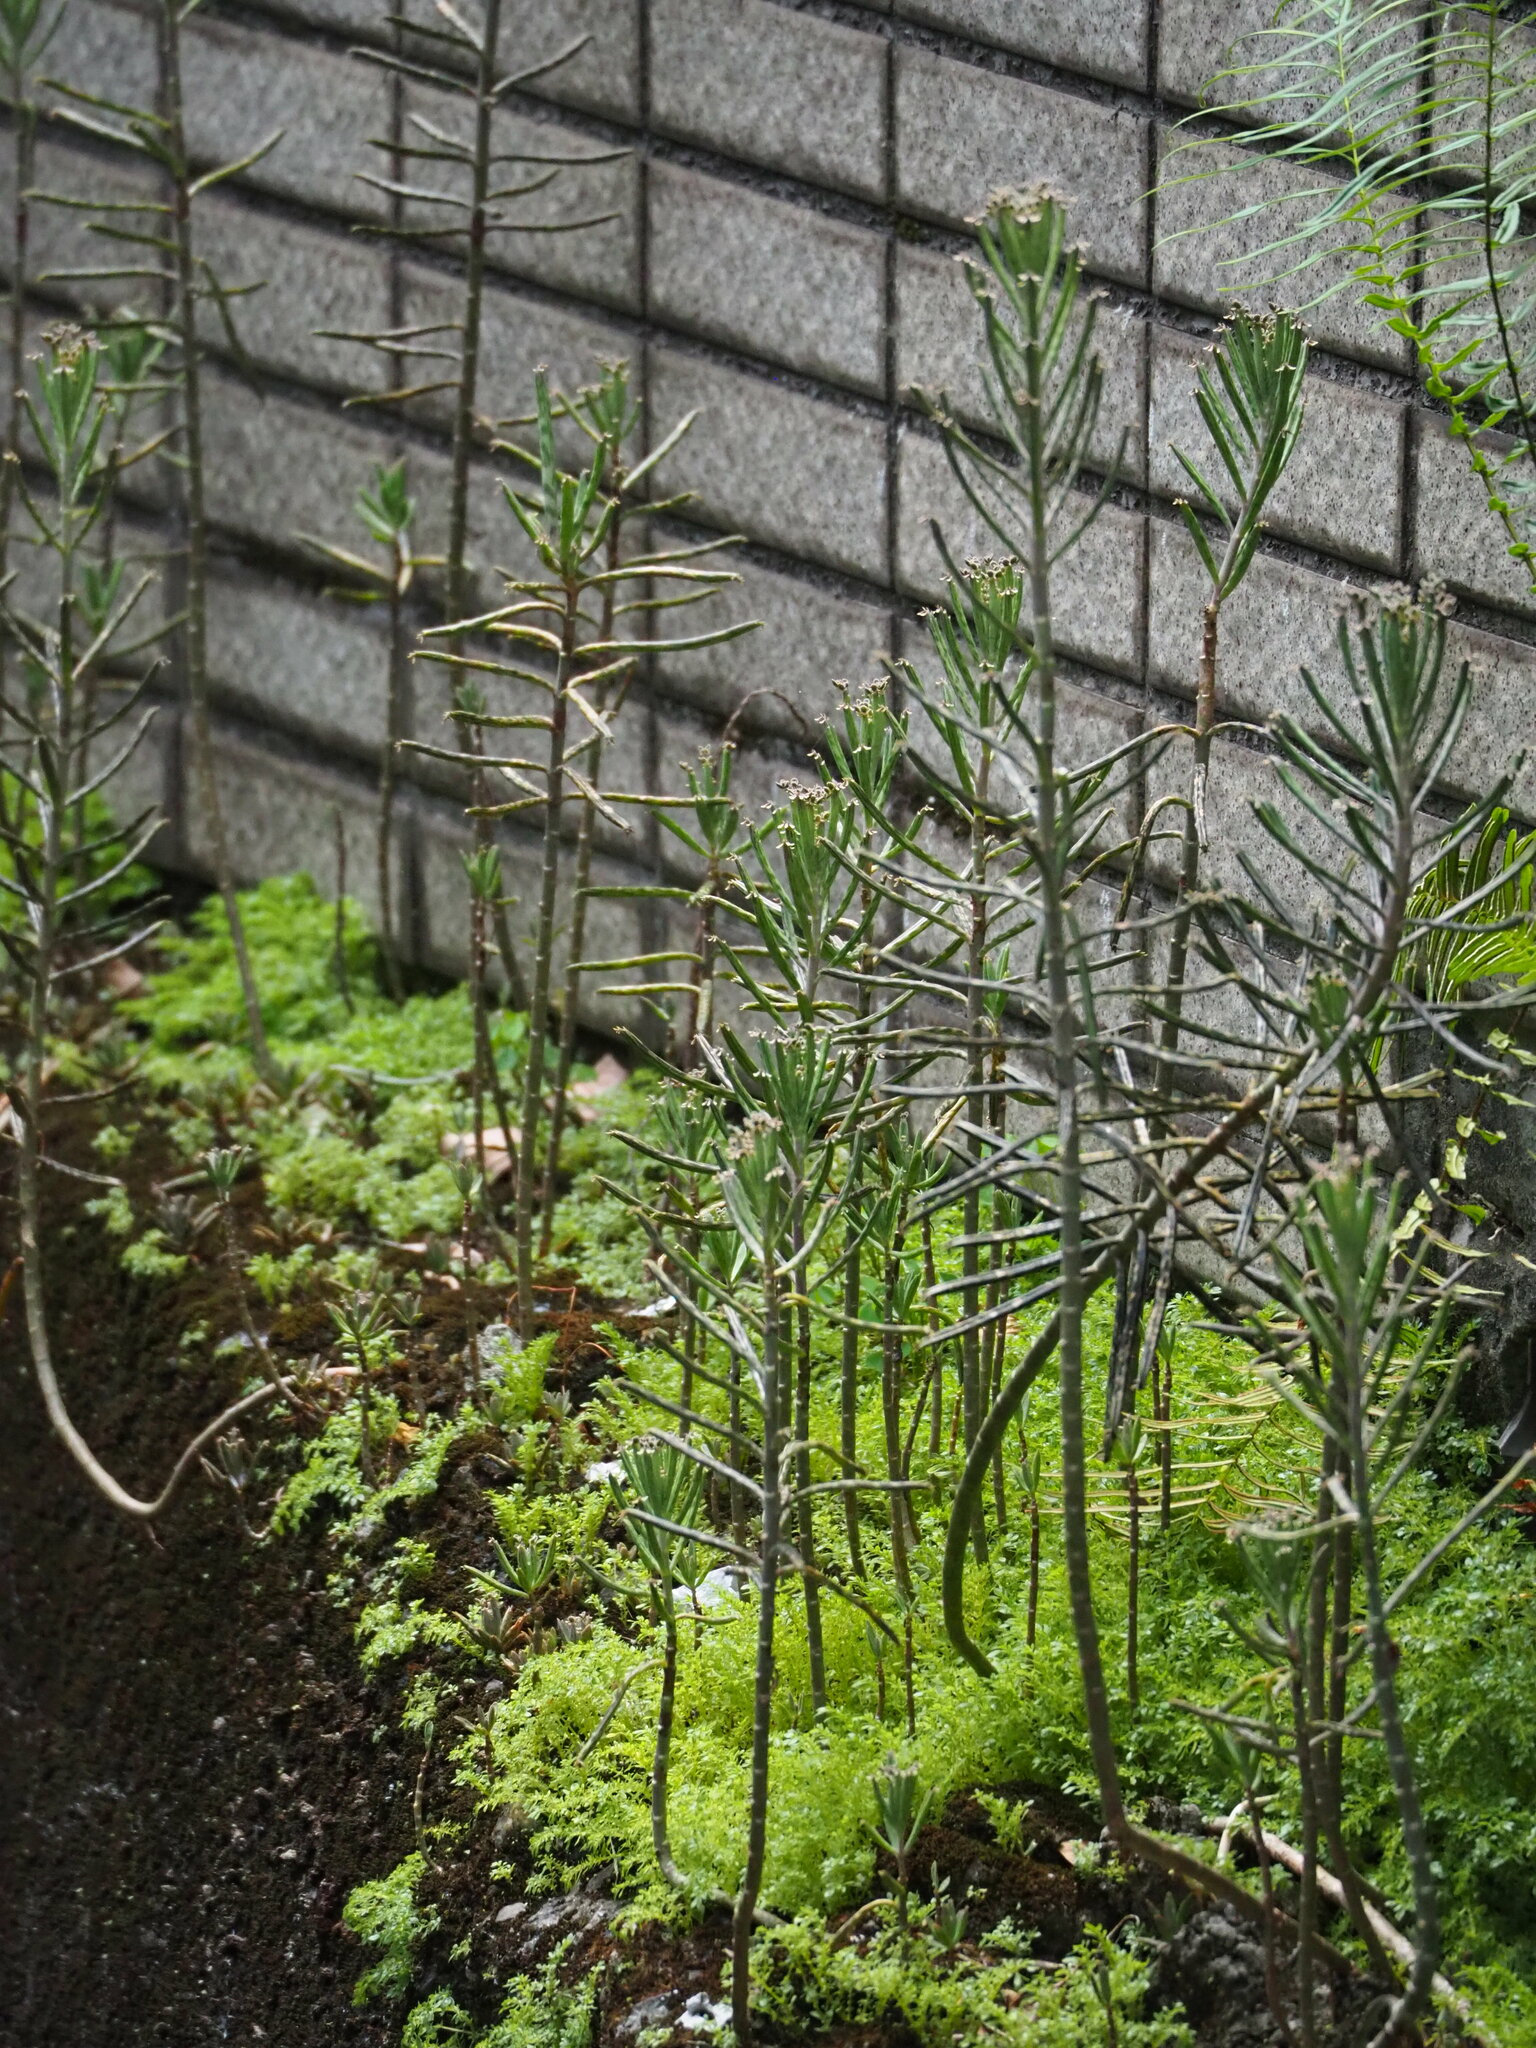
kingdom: Plantae
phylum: Tracheophyta
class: Magnoliopsida
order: Saxifragales
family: Crassulaceae
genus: Kalanchoe
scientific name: Kalanchoe delagoensis
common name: Chandelier plant
